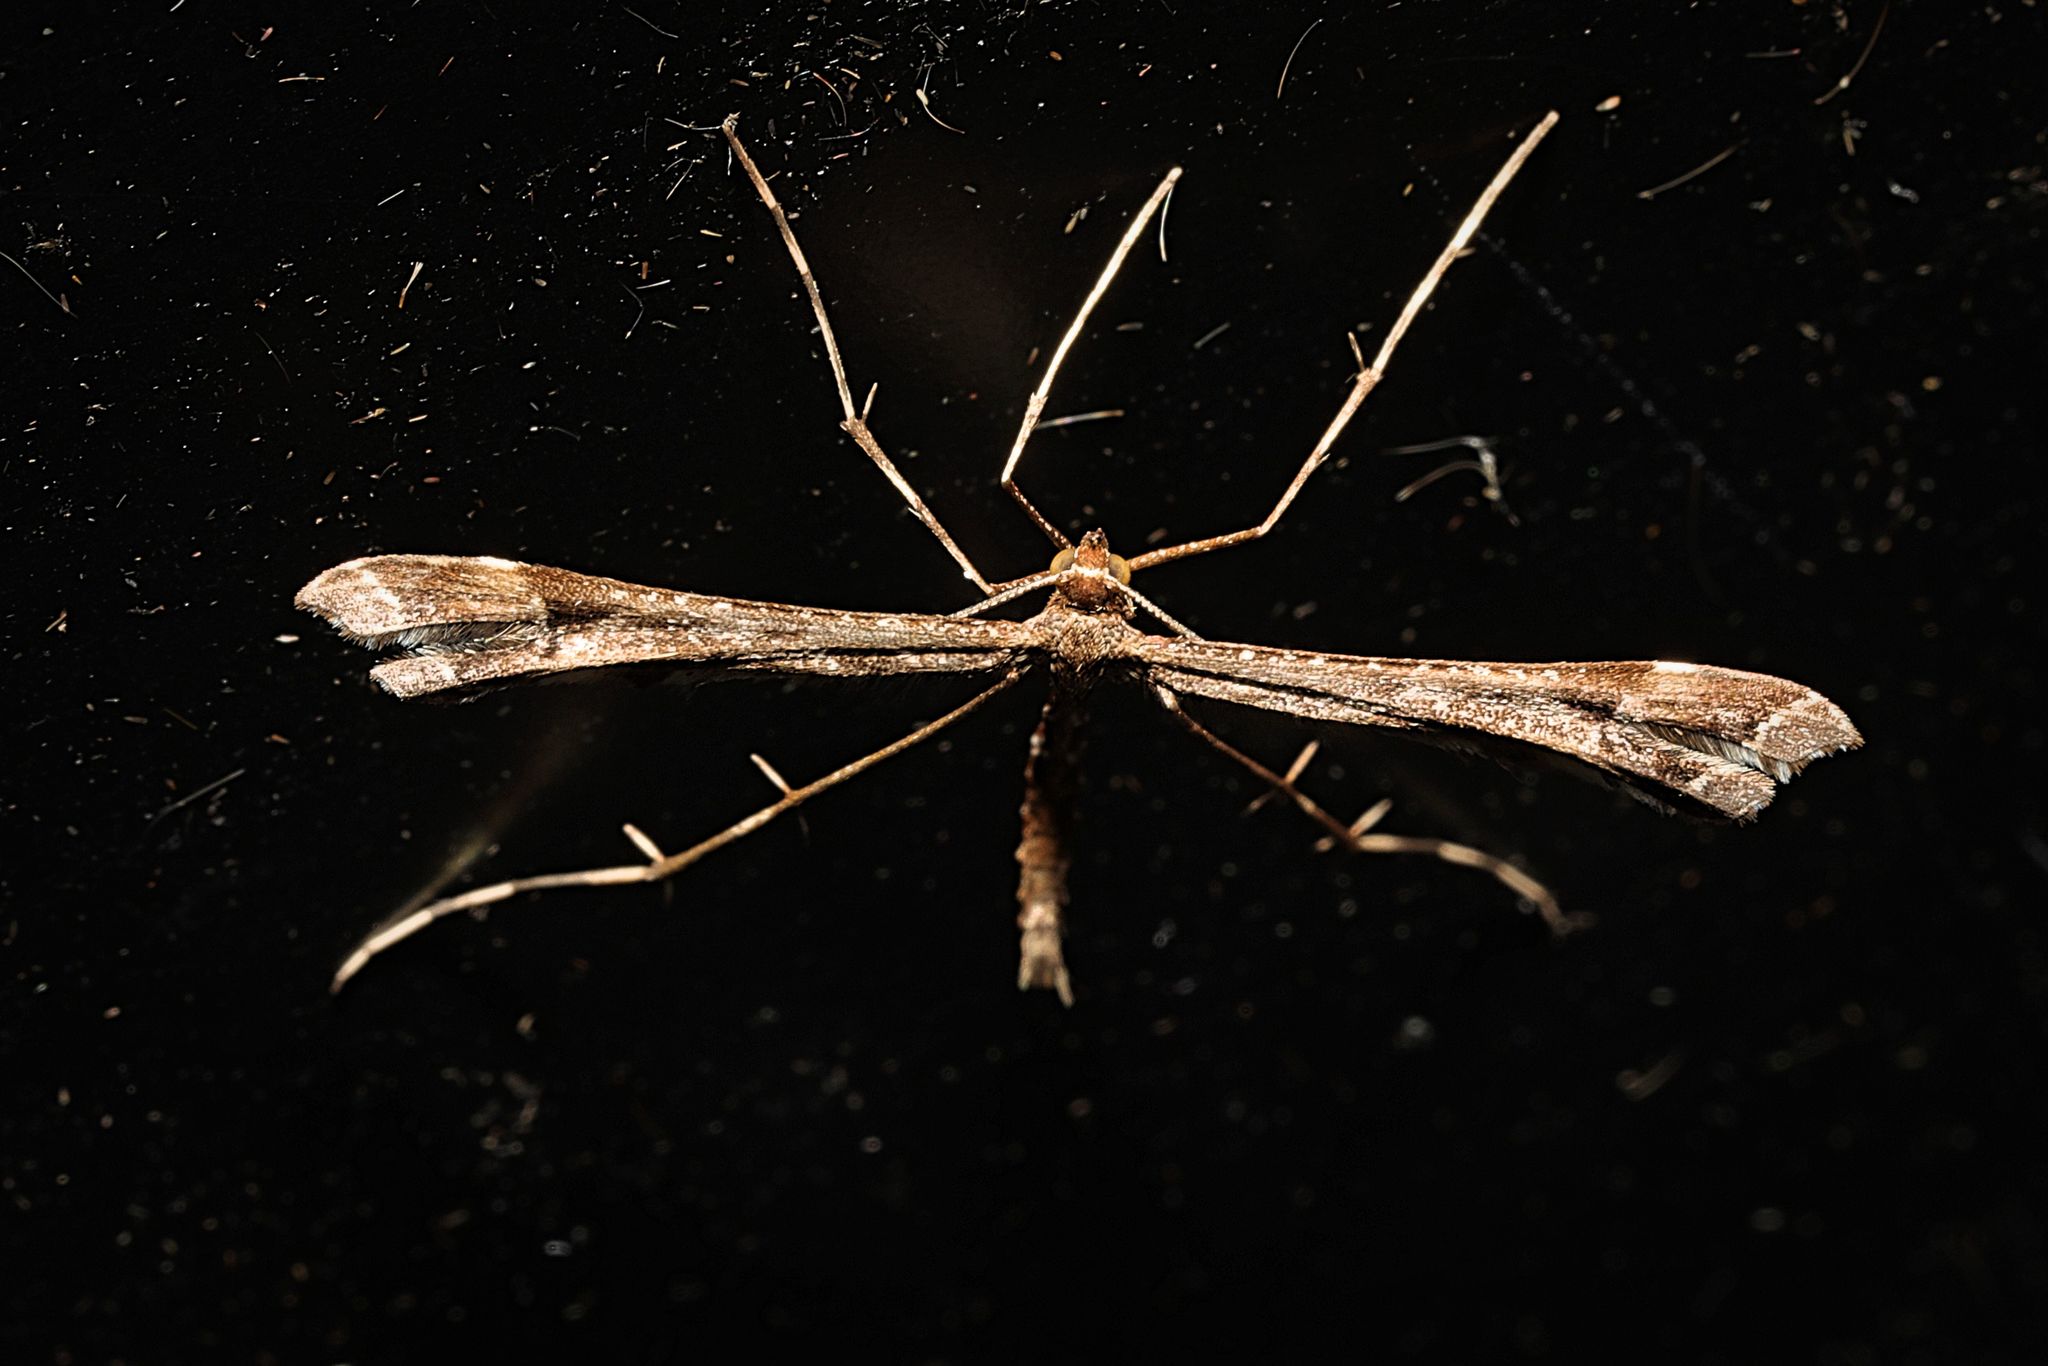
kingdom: Animalia
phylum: Arthropoda
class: Insecta
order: Lepidoptera
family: Pterophoridae
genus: Amblyptilia
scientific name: Amblyptilia acanthadactyla
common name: Beautiful plume
